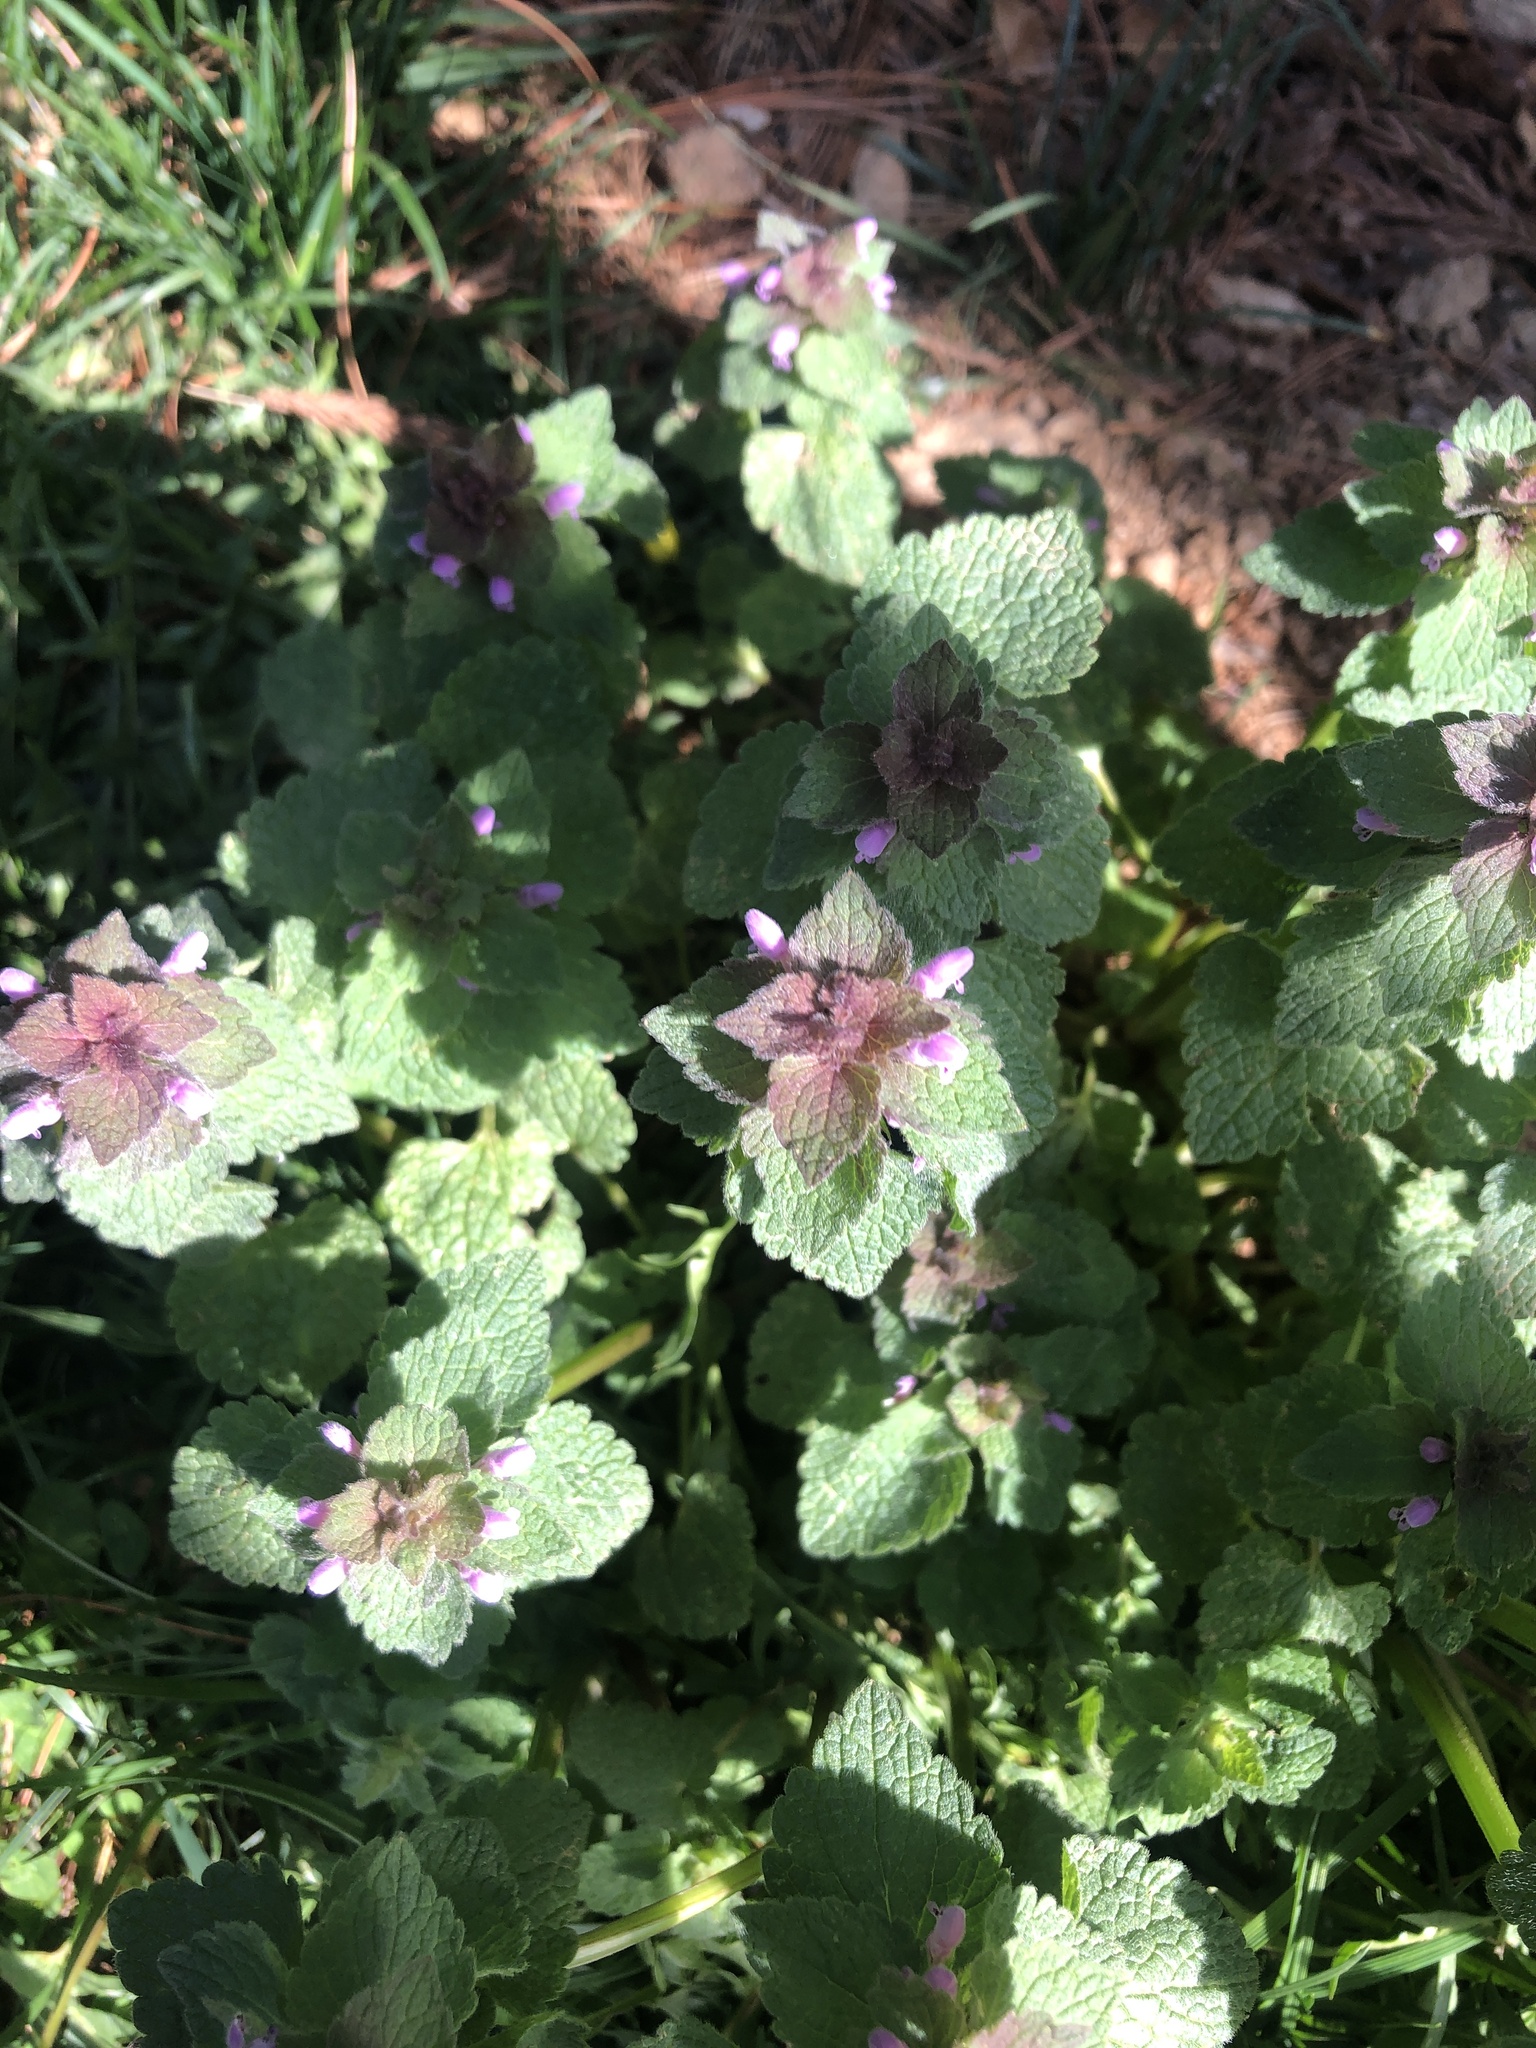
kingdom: Plantae
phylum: Tracheophyta
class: Magnoliopsida
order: Lamiales
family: Lamiaceae
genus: Lamium
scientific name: Lamium purpureum
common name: Red dead-nettle
